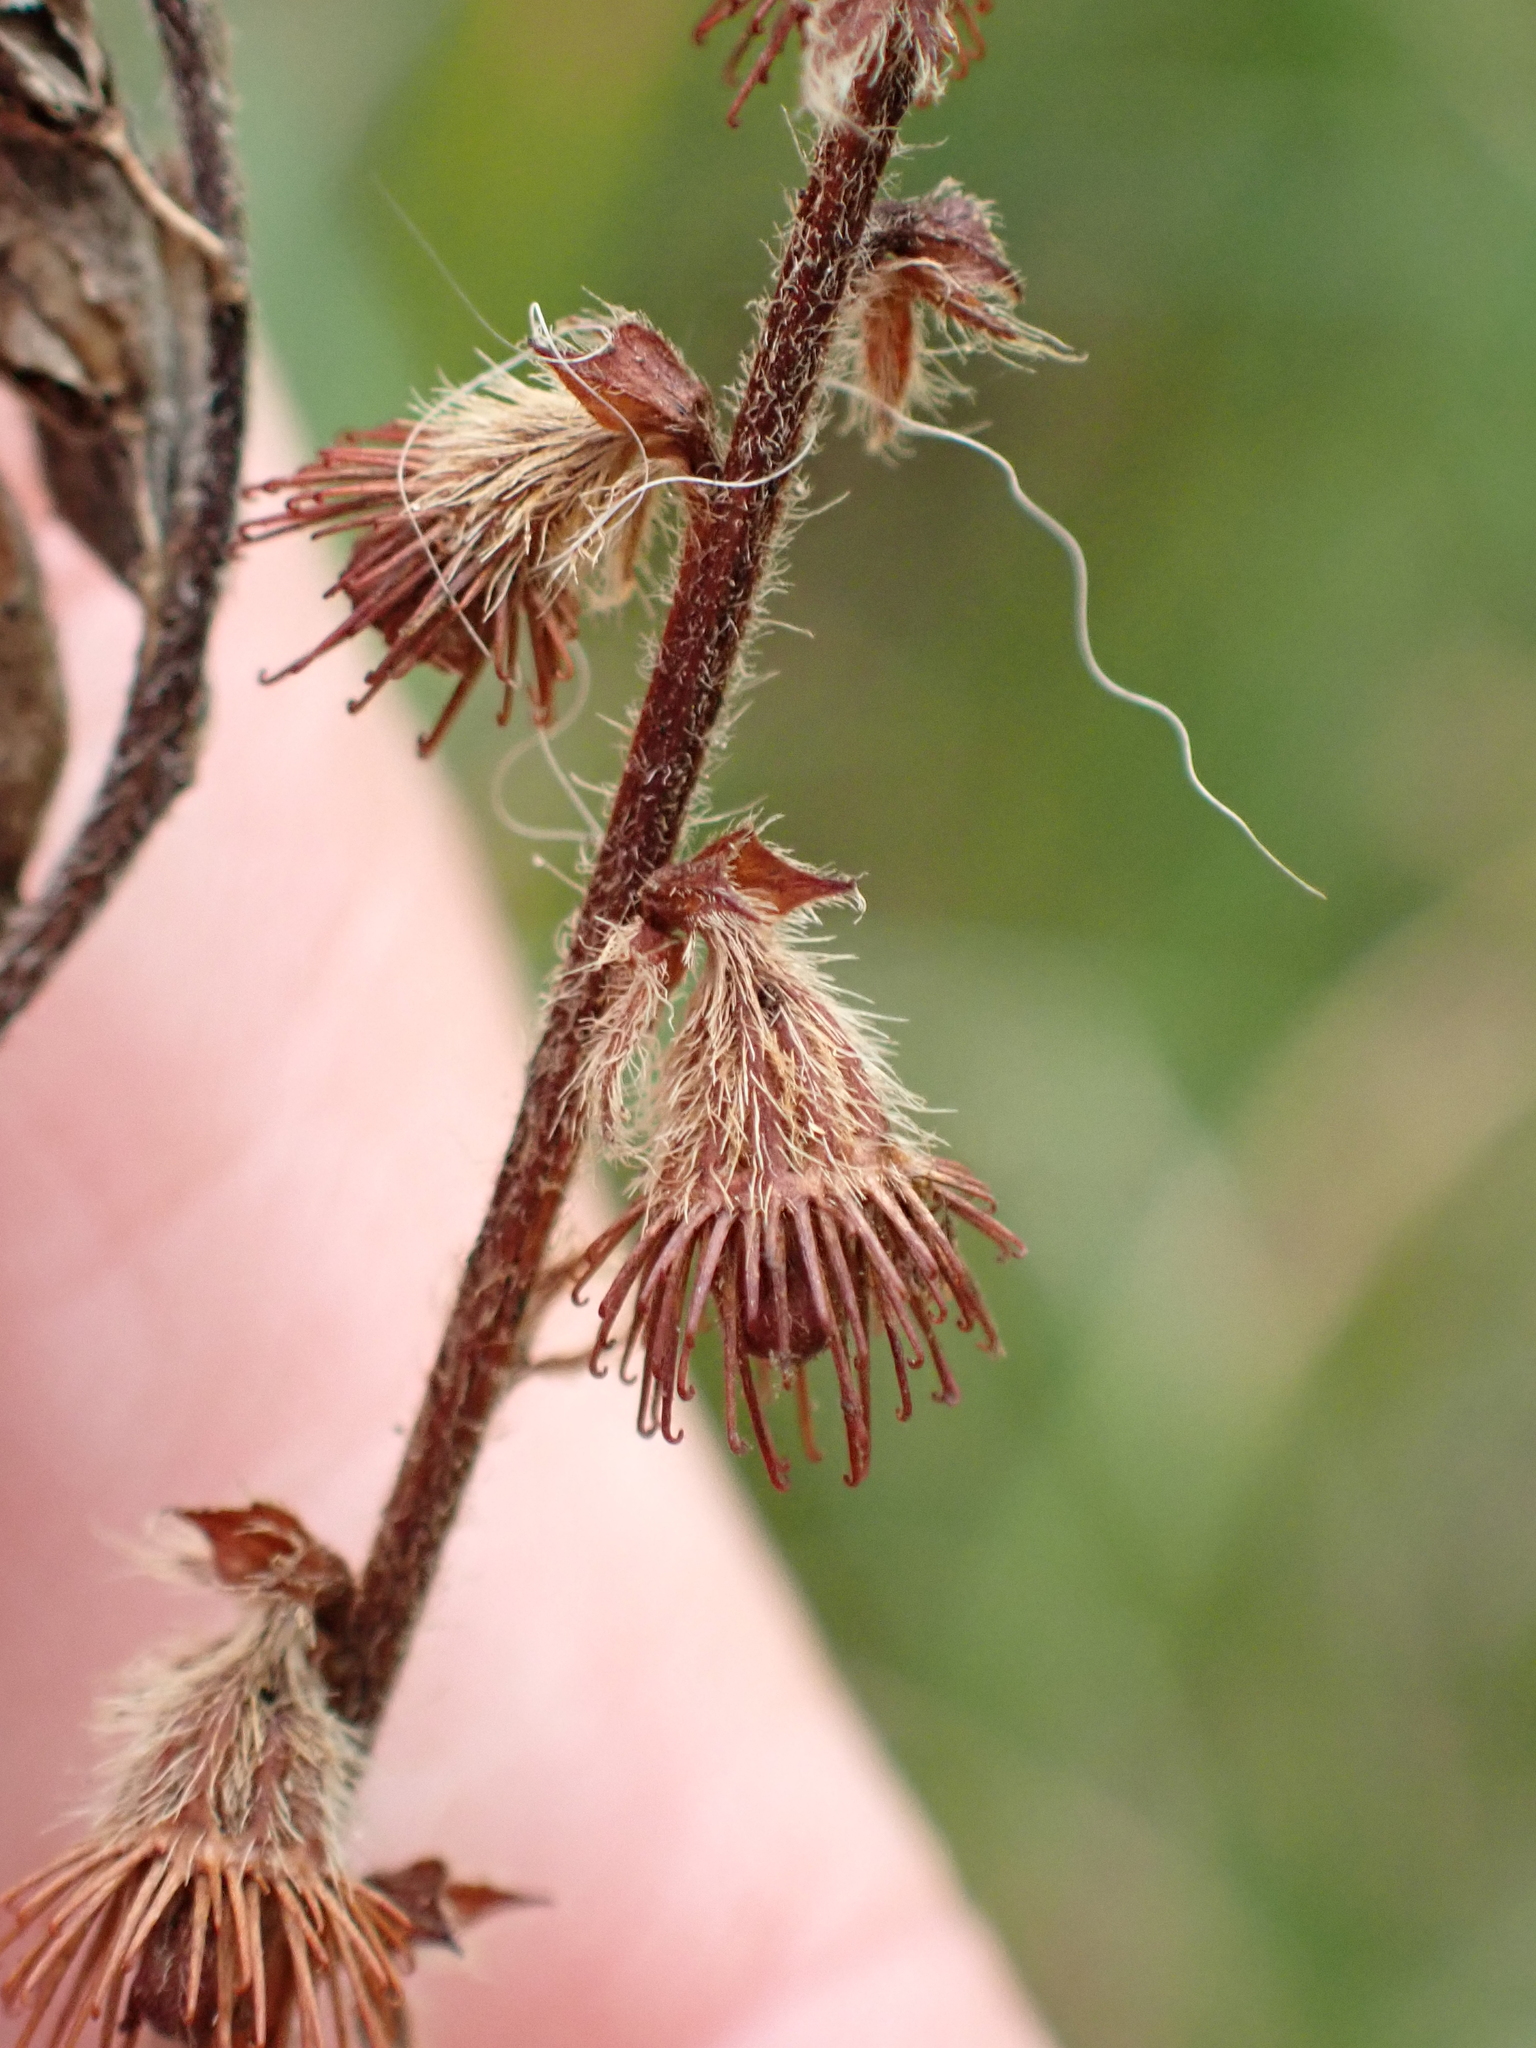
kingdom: Plantae
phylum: Tracheophyta
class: Magnoliopsida
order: Rosales
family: Rosaceae
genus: Agrimonia
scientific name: Agrimonia eupatoria
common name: Agrimony
